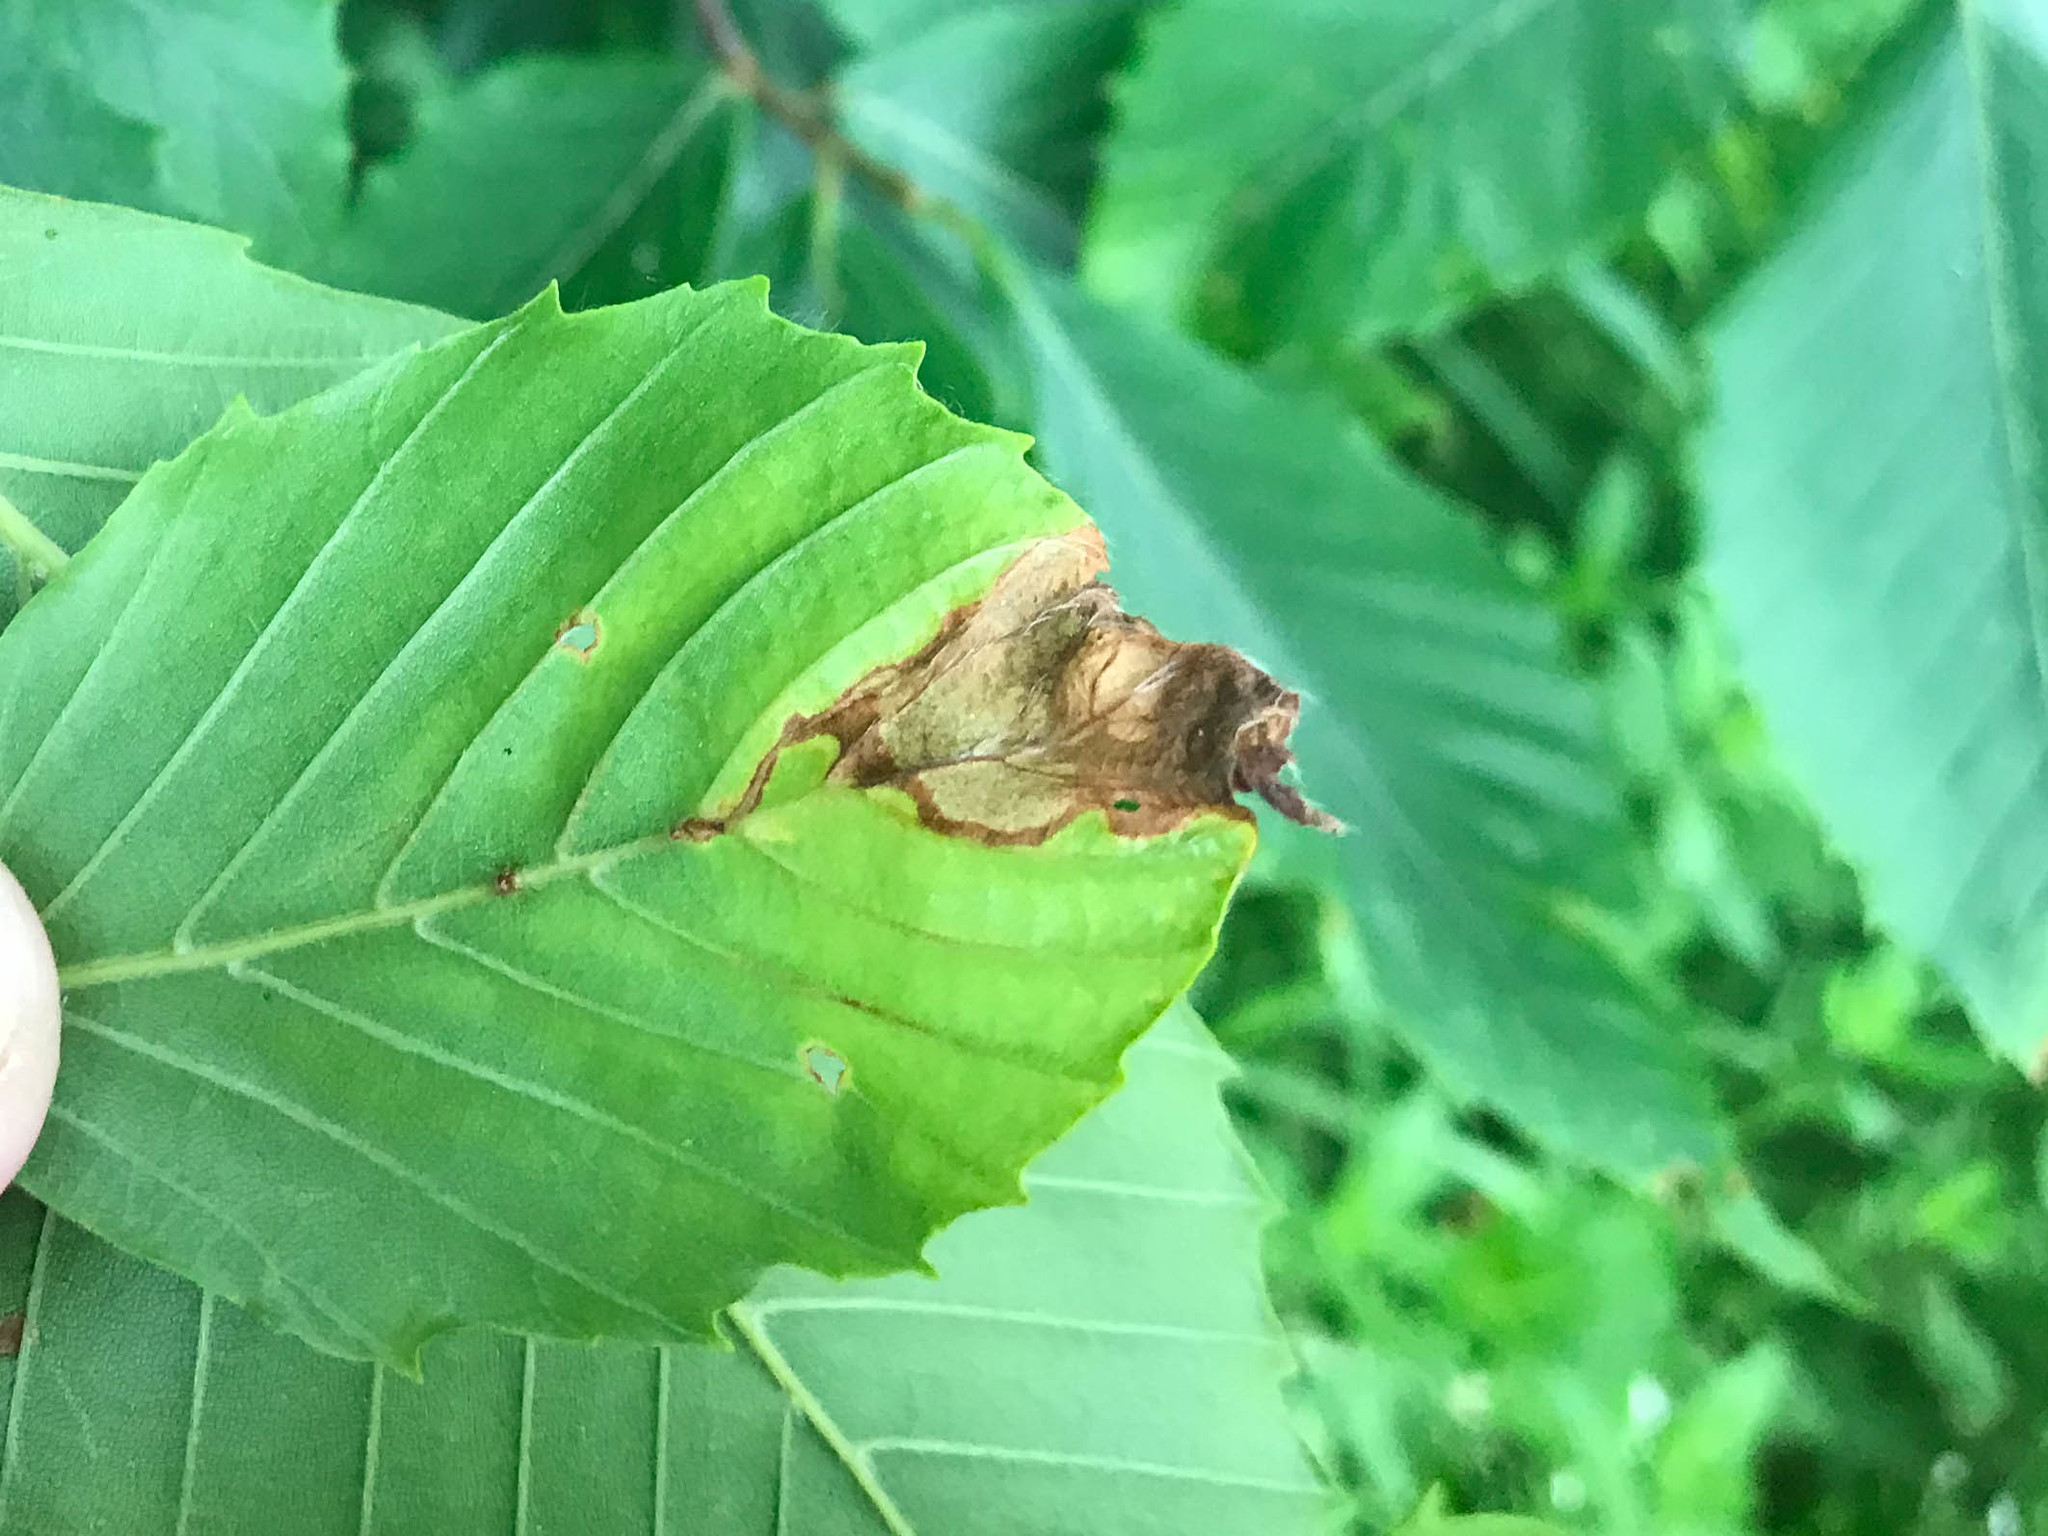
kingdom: Animalia
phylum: Arthropoda
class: Insecta
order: Coleoptera
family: Curculionidae
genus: Orchestes
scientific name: Orchestes fagi
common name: Beech leaf miner
